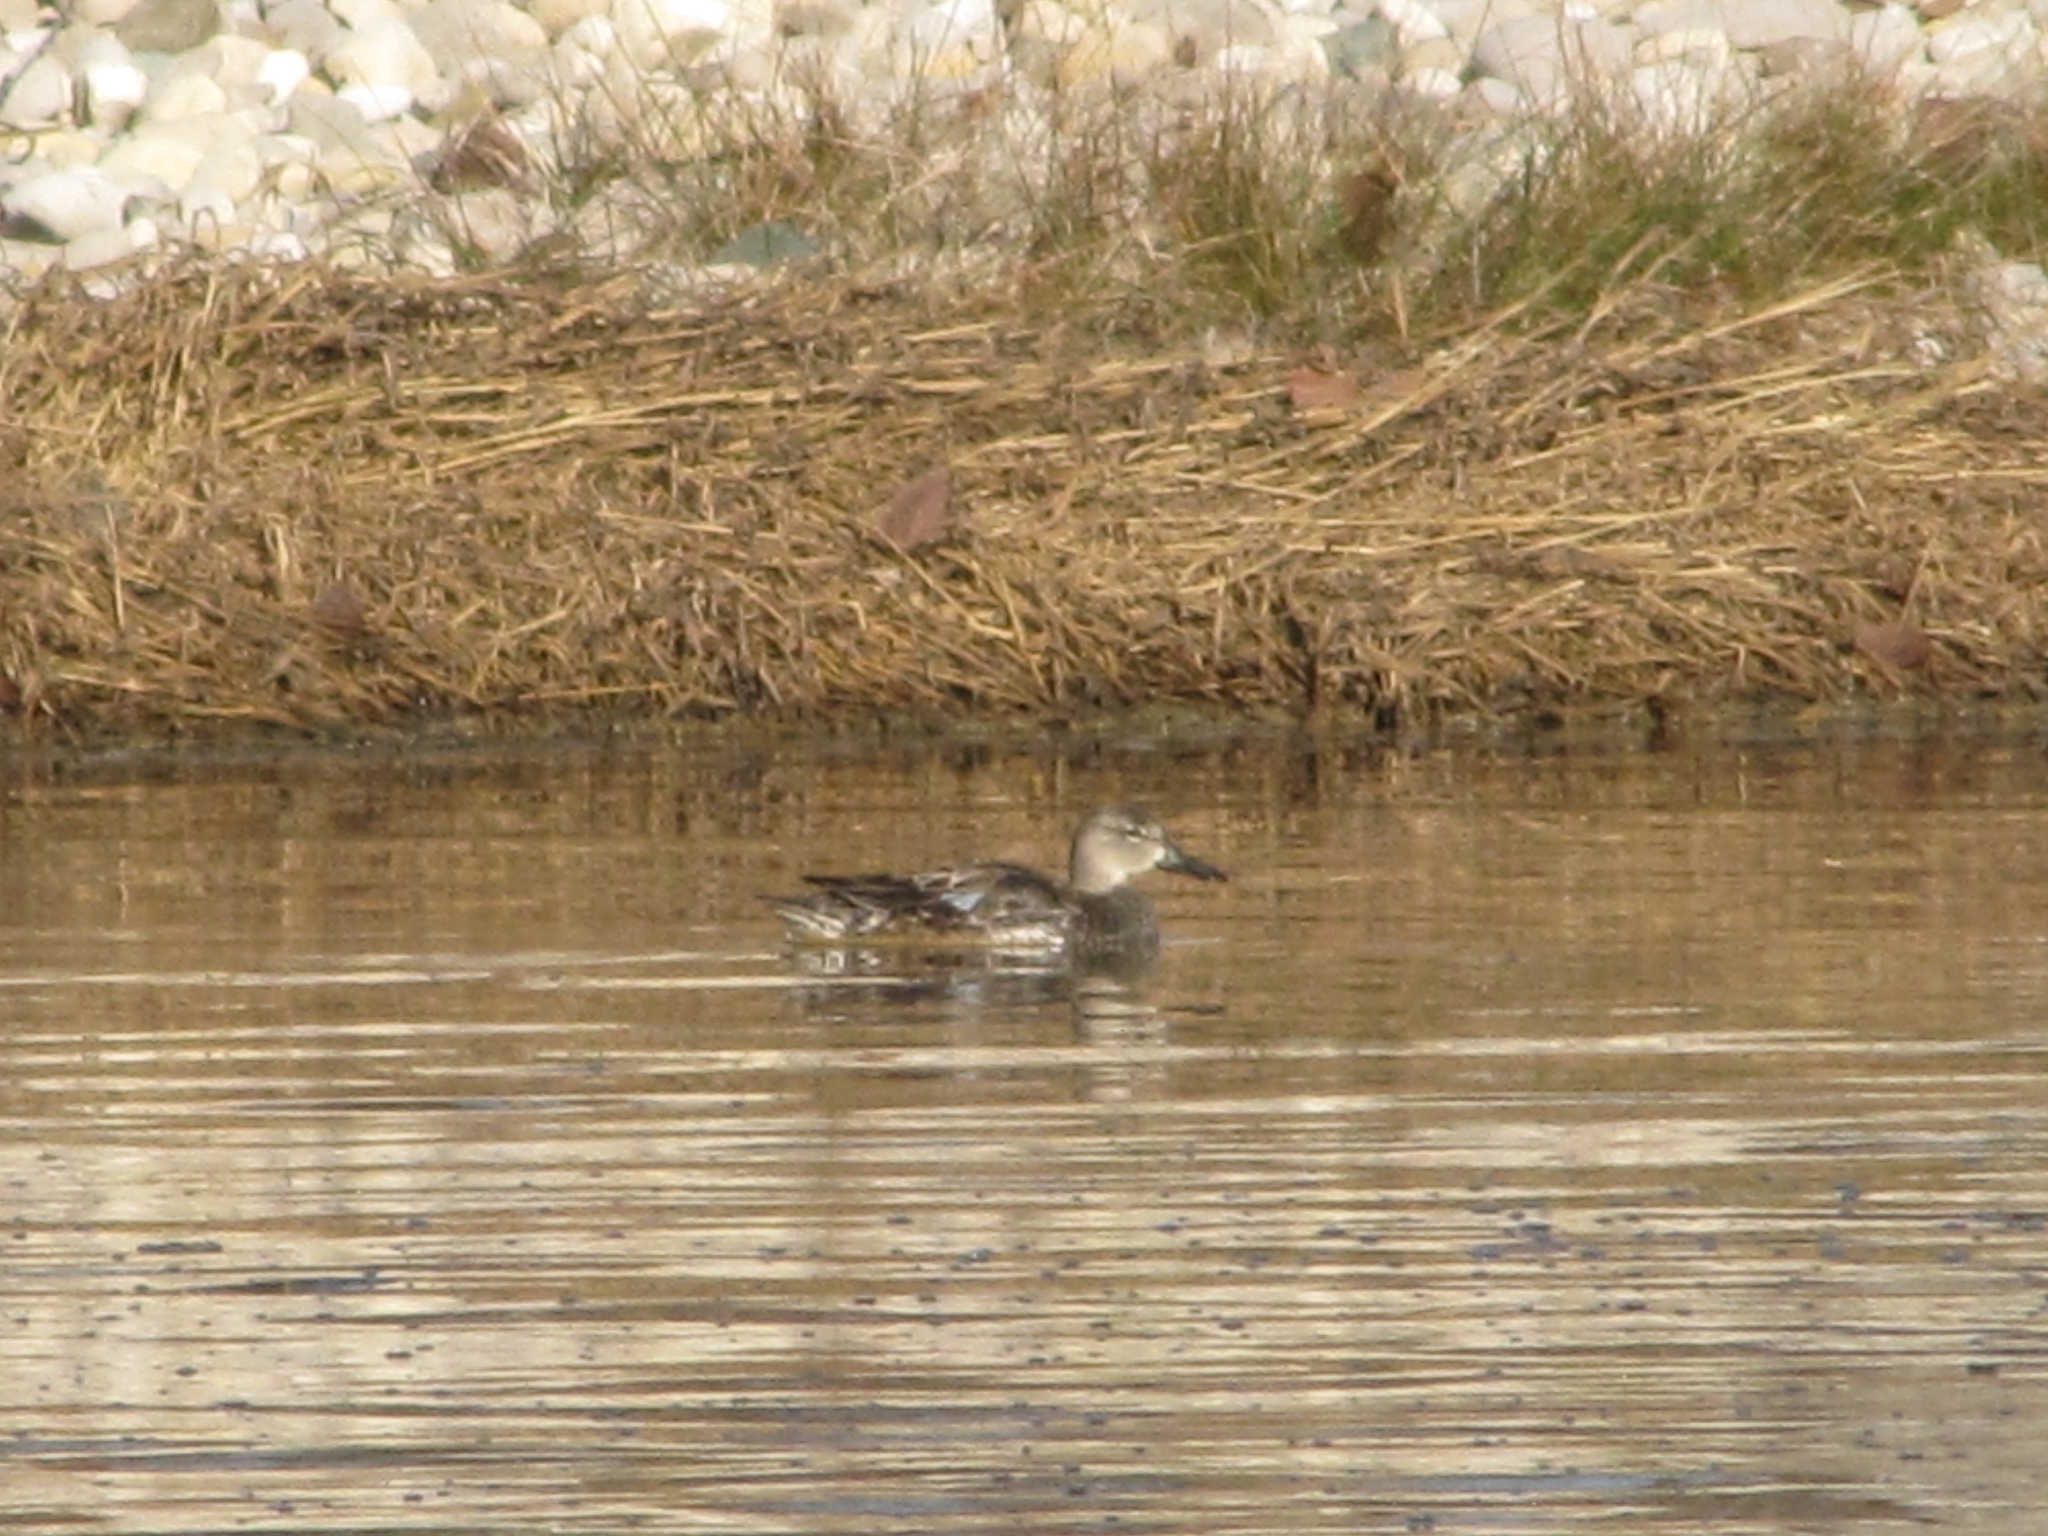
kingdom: Animalia
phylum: Chordata
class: Aves
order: Anseriformes
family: Anatidae
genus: Spatula
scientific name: Spatula discors
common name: Blue-winged teal
